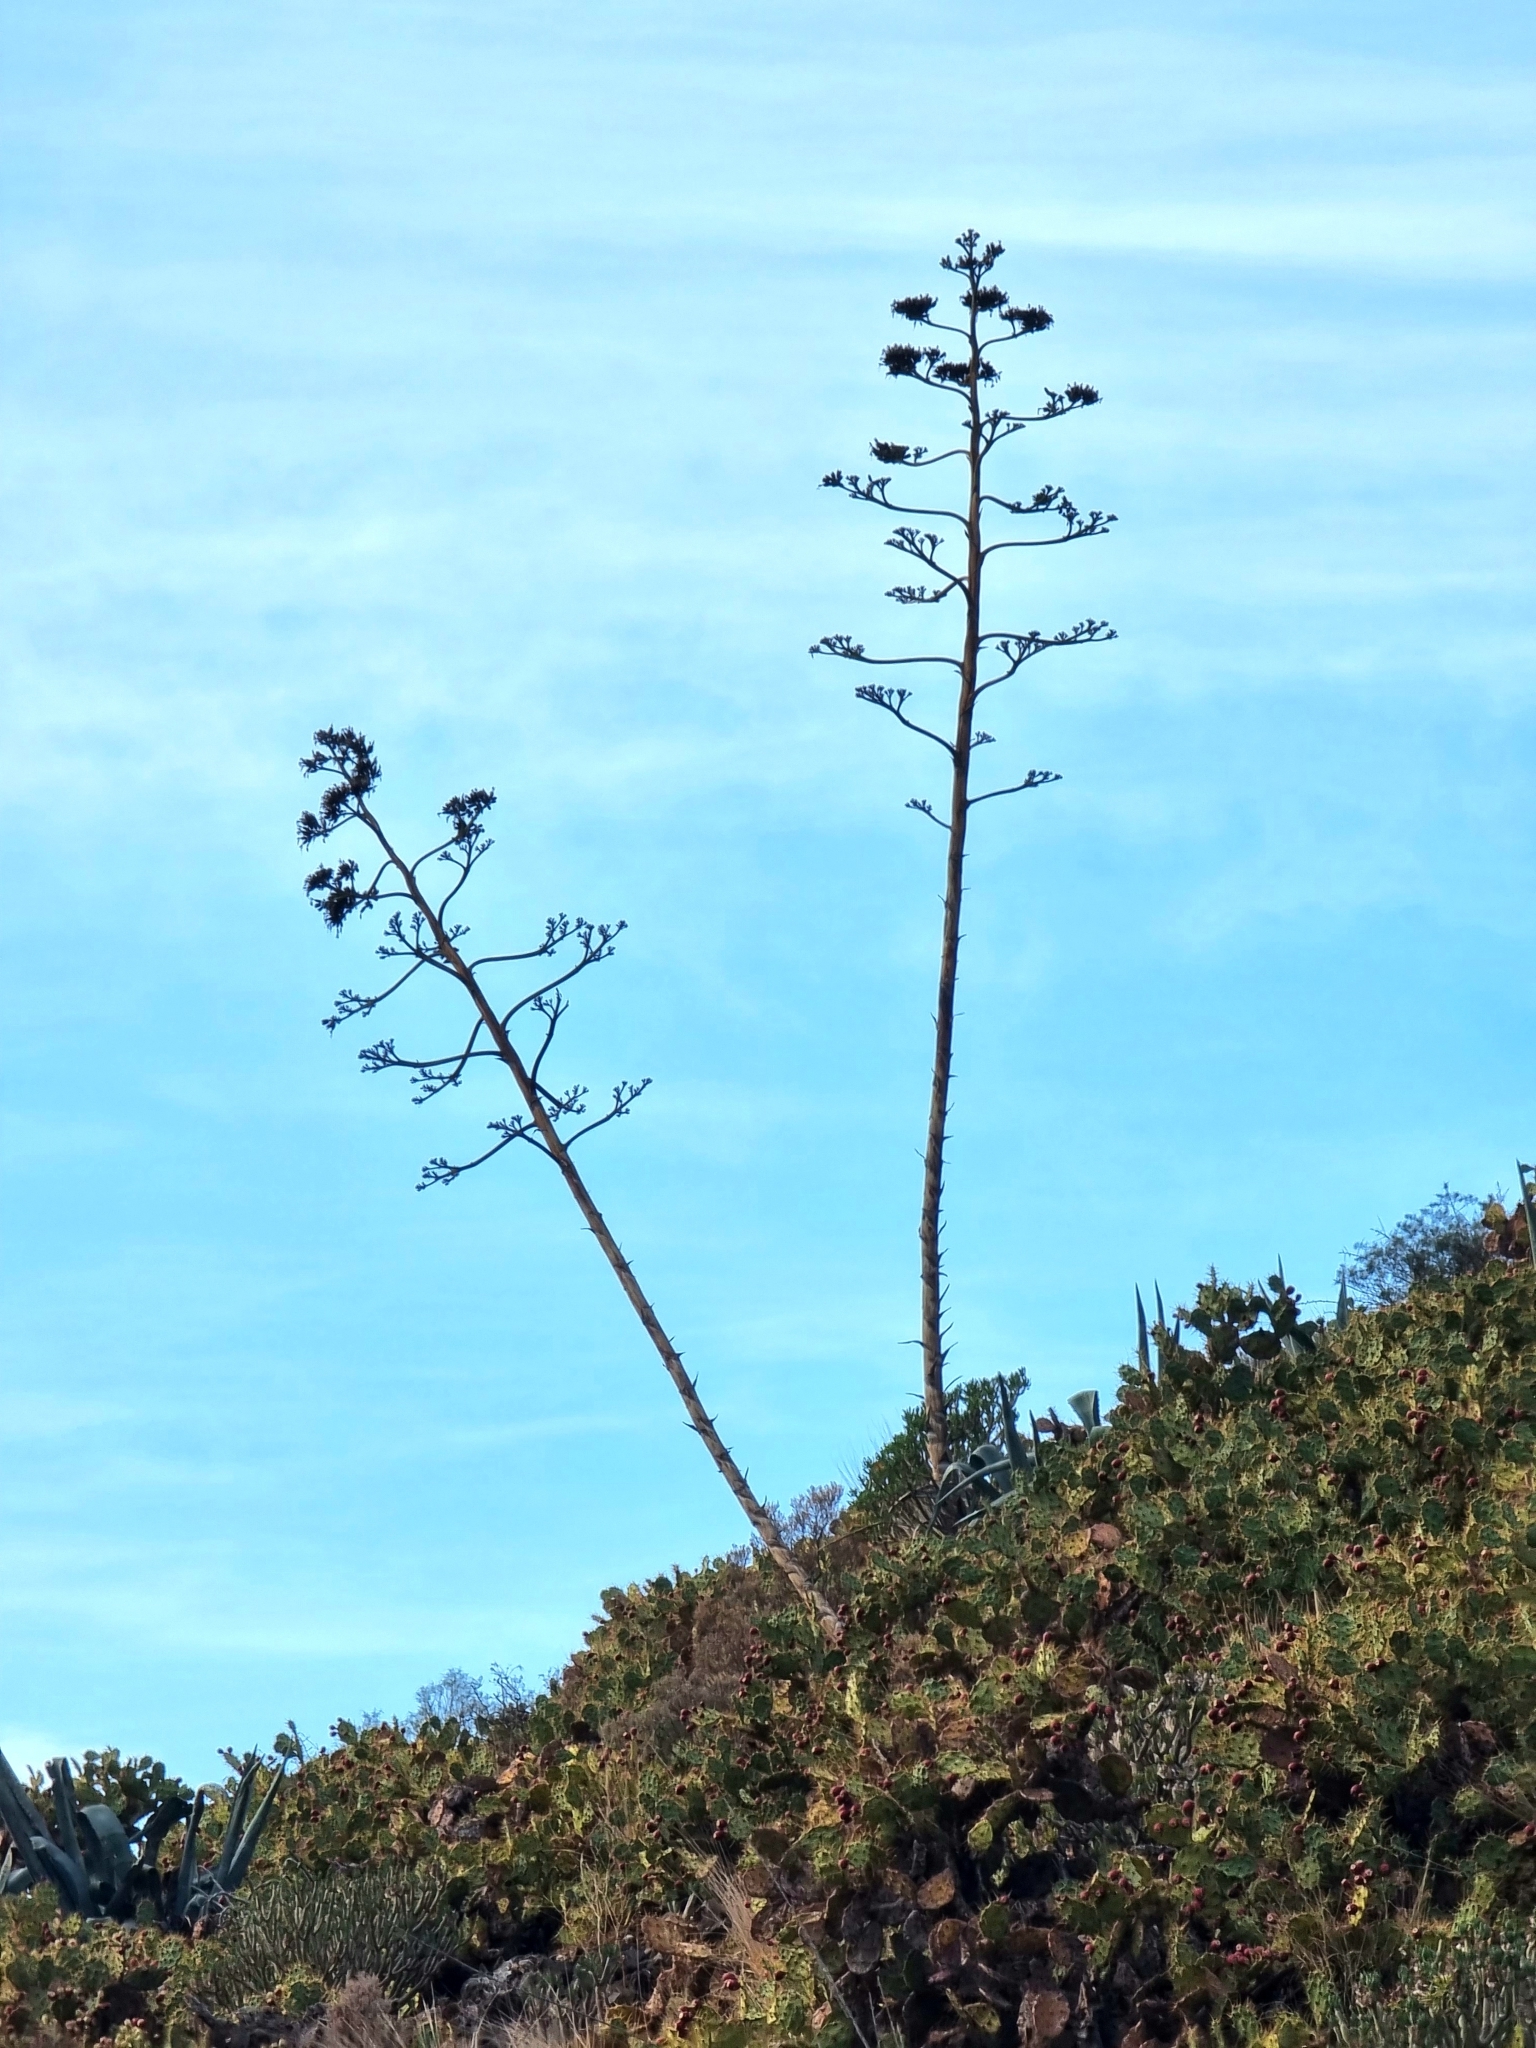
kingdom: Plantae
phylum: Tracheophyta
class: Liliopsida
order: Asparagales
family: Asparagaceae
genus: Agave
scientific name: Agave americana
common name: Centuryplant
